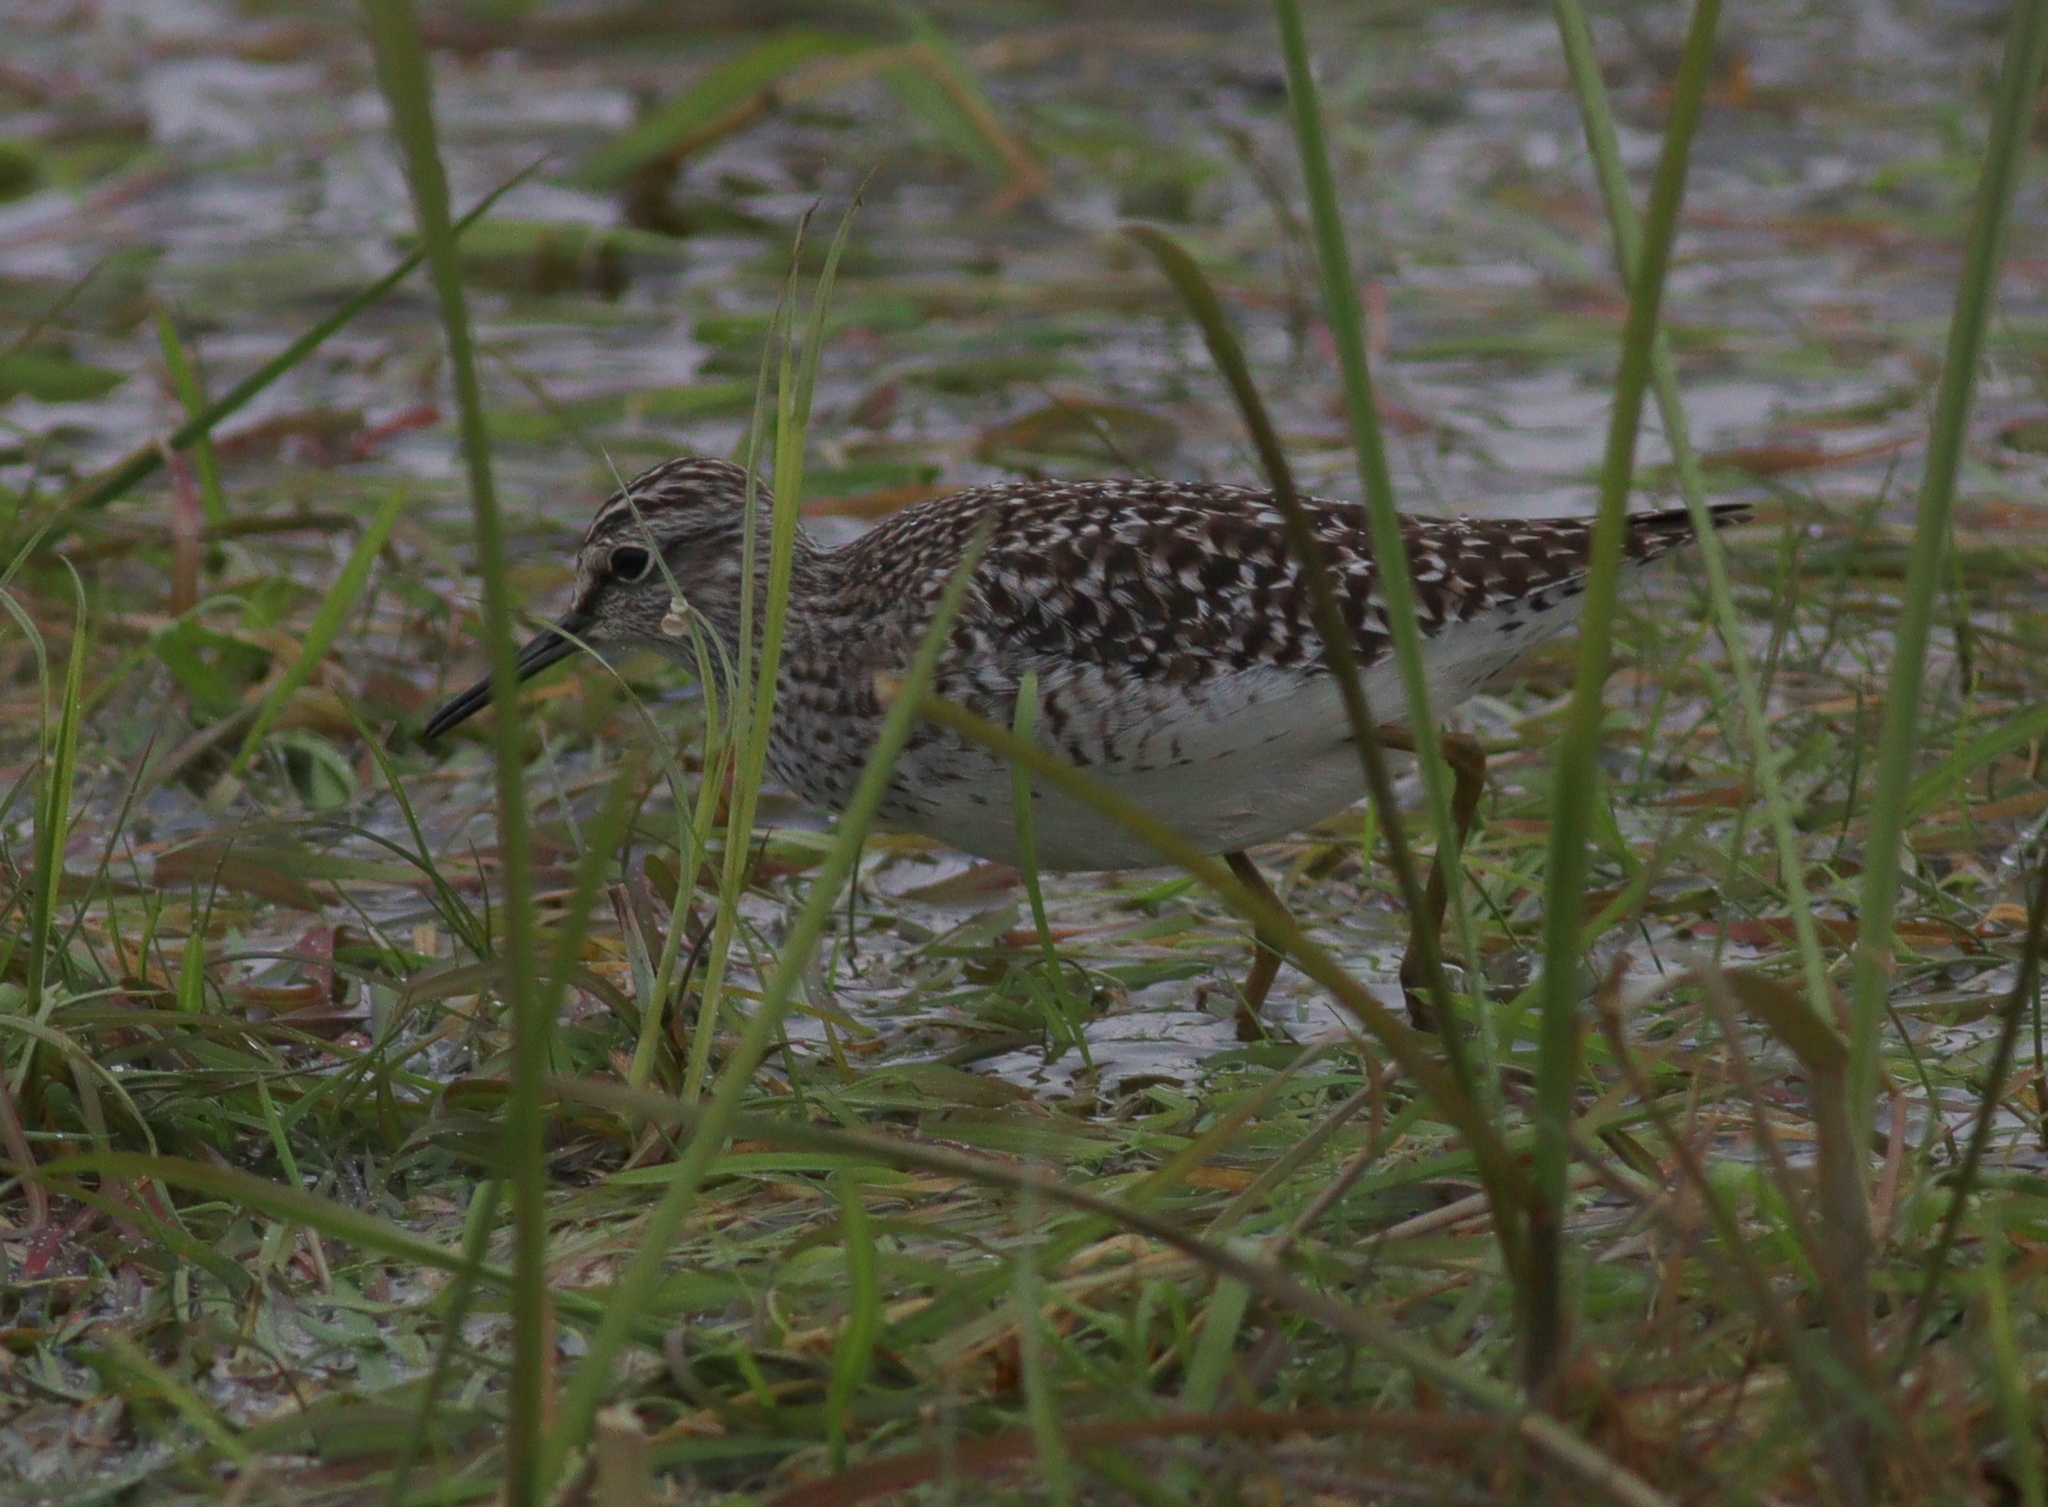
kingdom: Animalia
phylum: Chordata
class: Aves
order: Charadriiformes
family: Scolopacidae
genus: Tringa
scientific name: Tringa glareola
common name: Wood sandpiper
